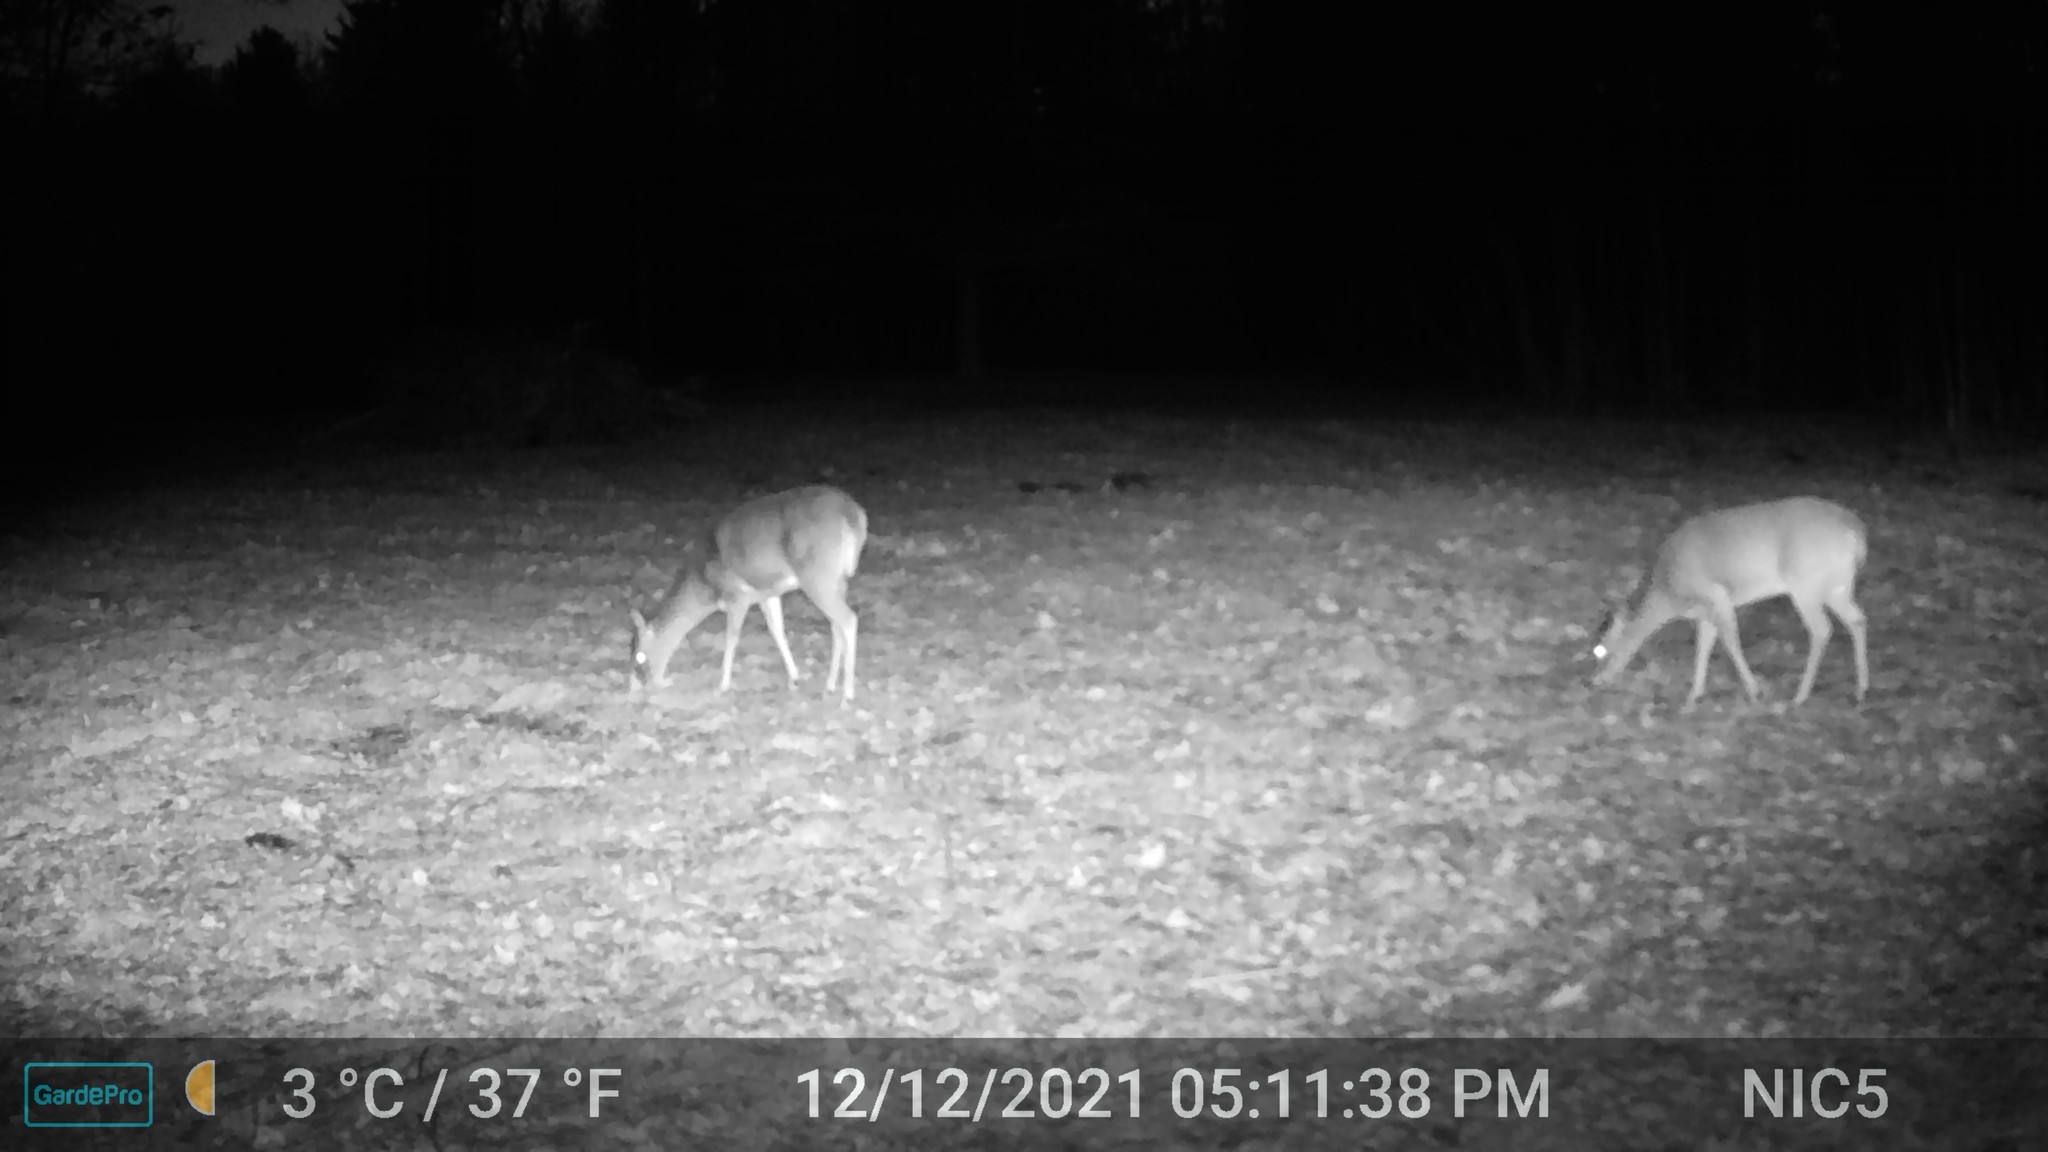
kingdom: Animalia
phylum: Chordata
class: Mammalia
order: Artiodactyla
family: Cervidae
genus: Odocoileus
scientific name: Odocoileus virginianus
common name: White-tailed deer
